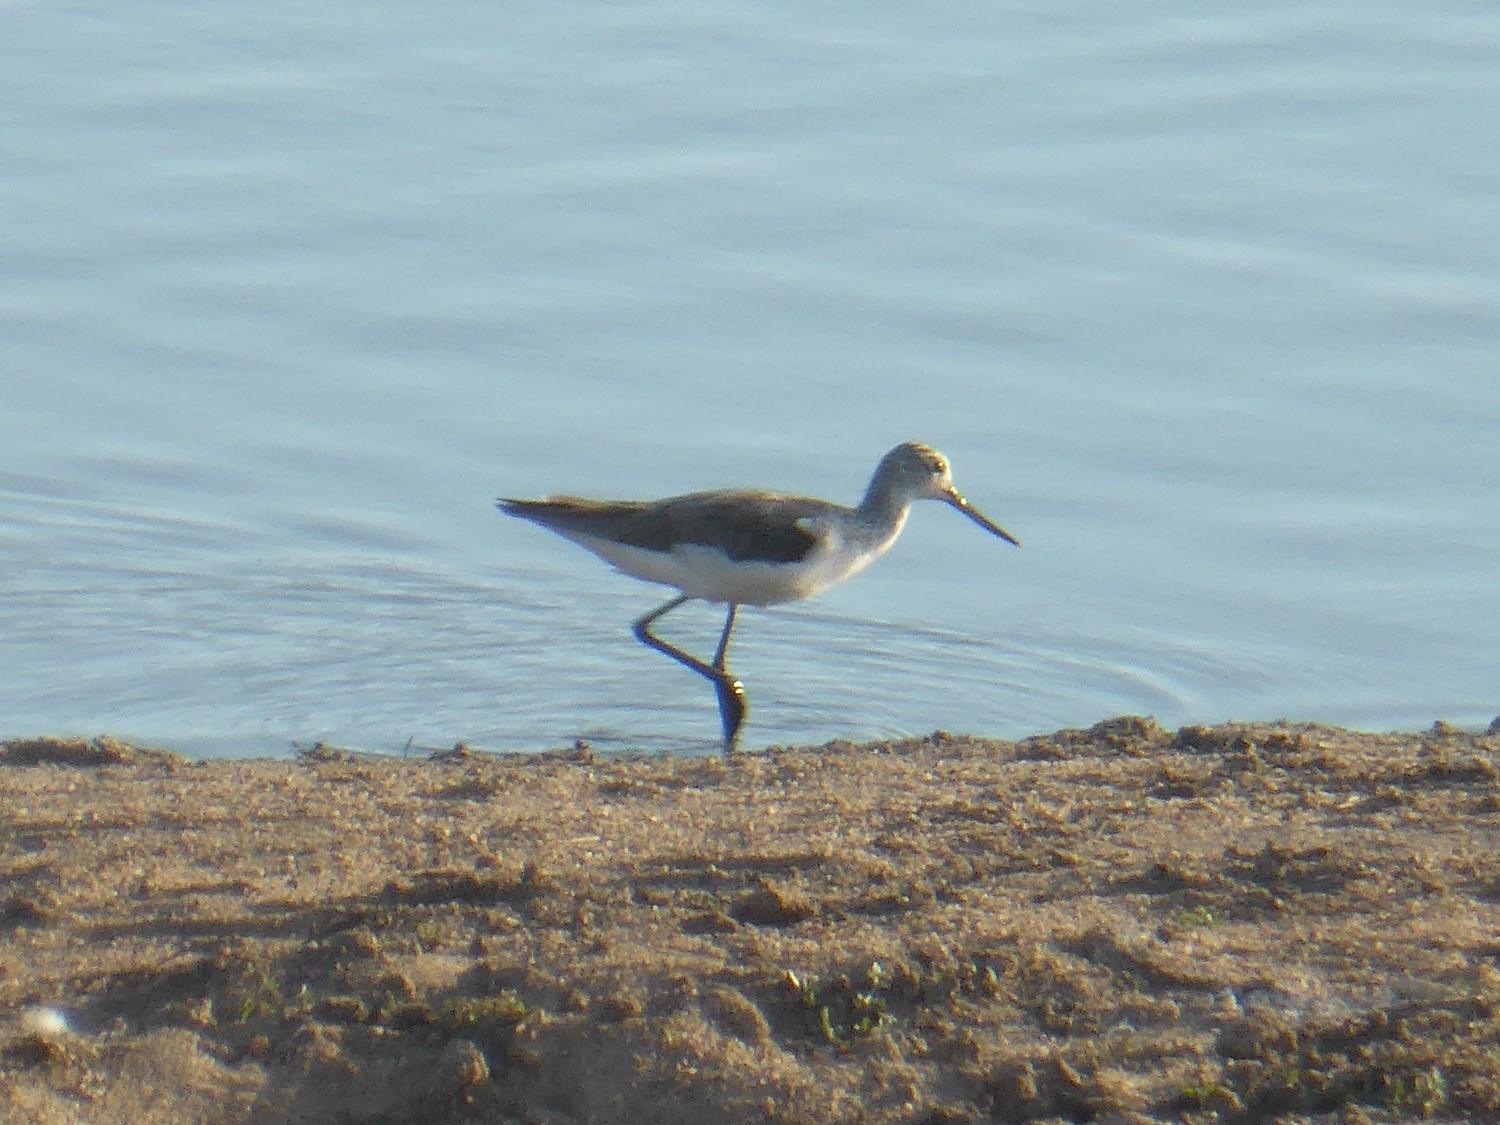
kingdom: Animalia
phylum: Chordata
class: Aves
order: Charadriiformes
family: Scolopacidae
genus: Tringa
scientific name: Tringa nebularia
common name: Common greenshank
